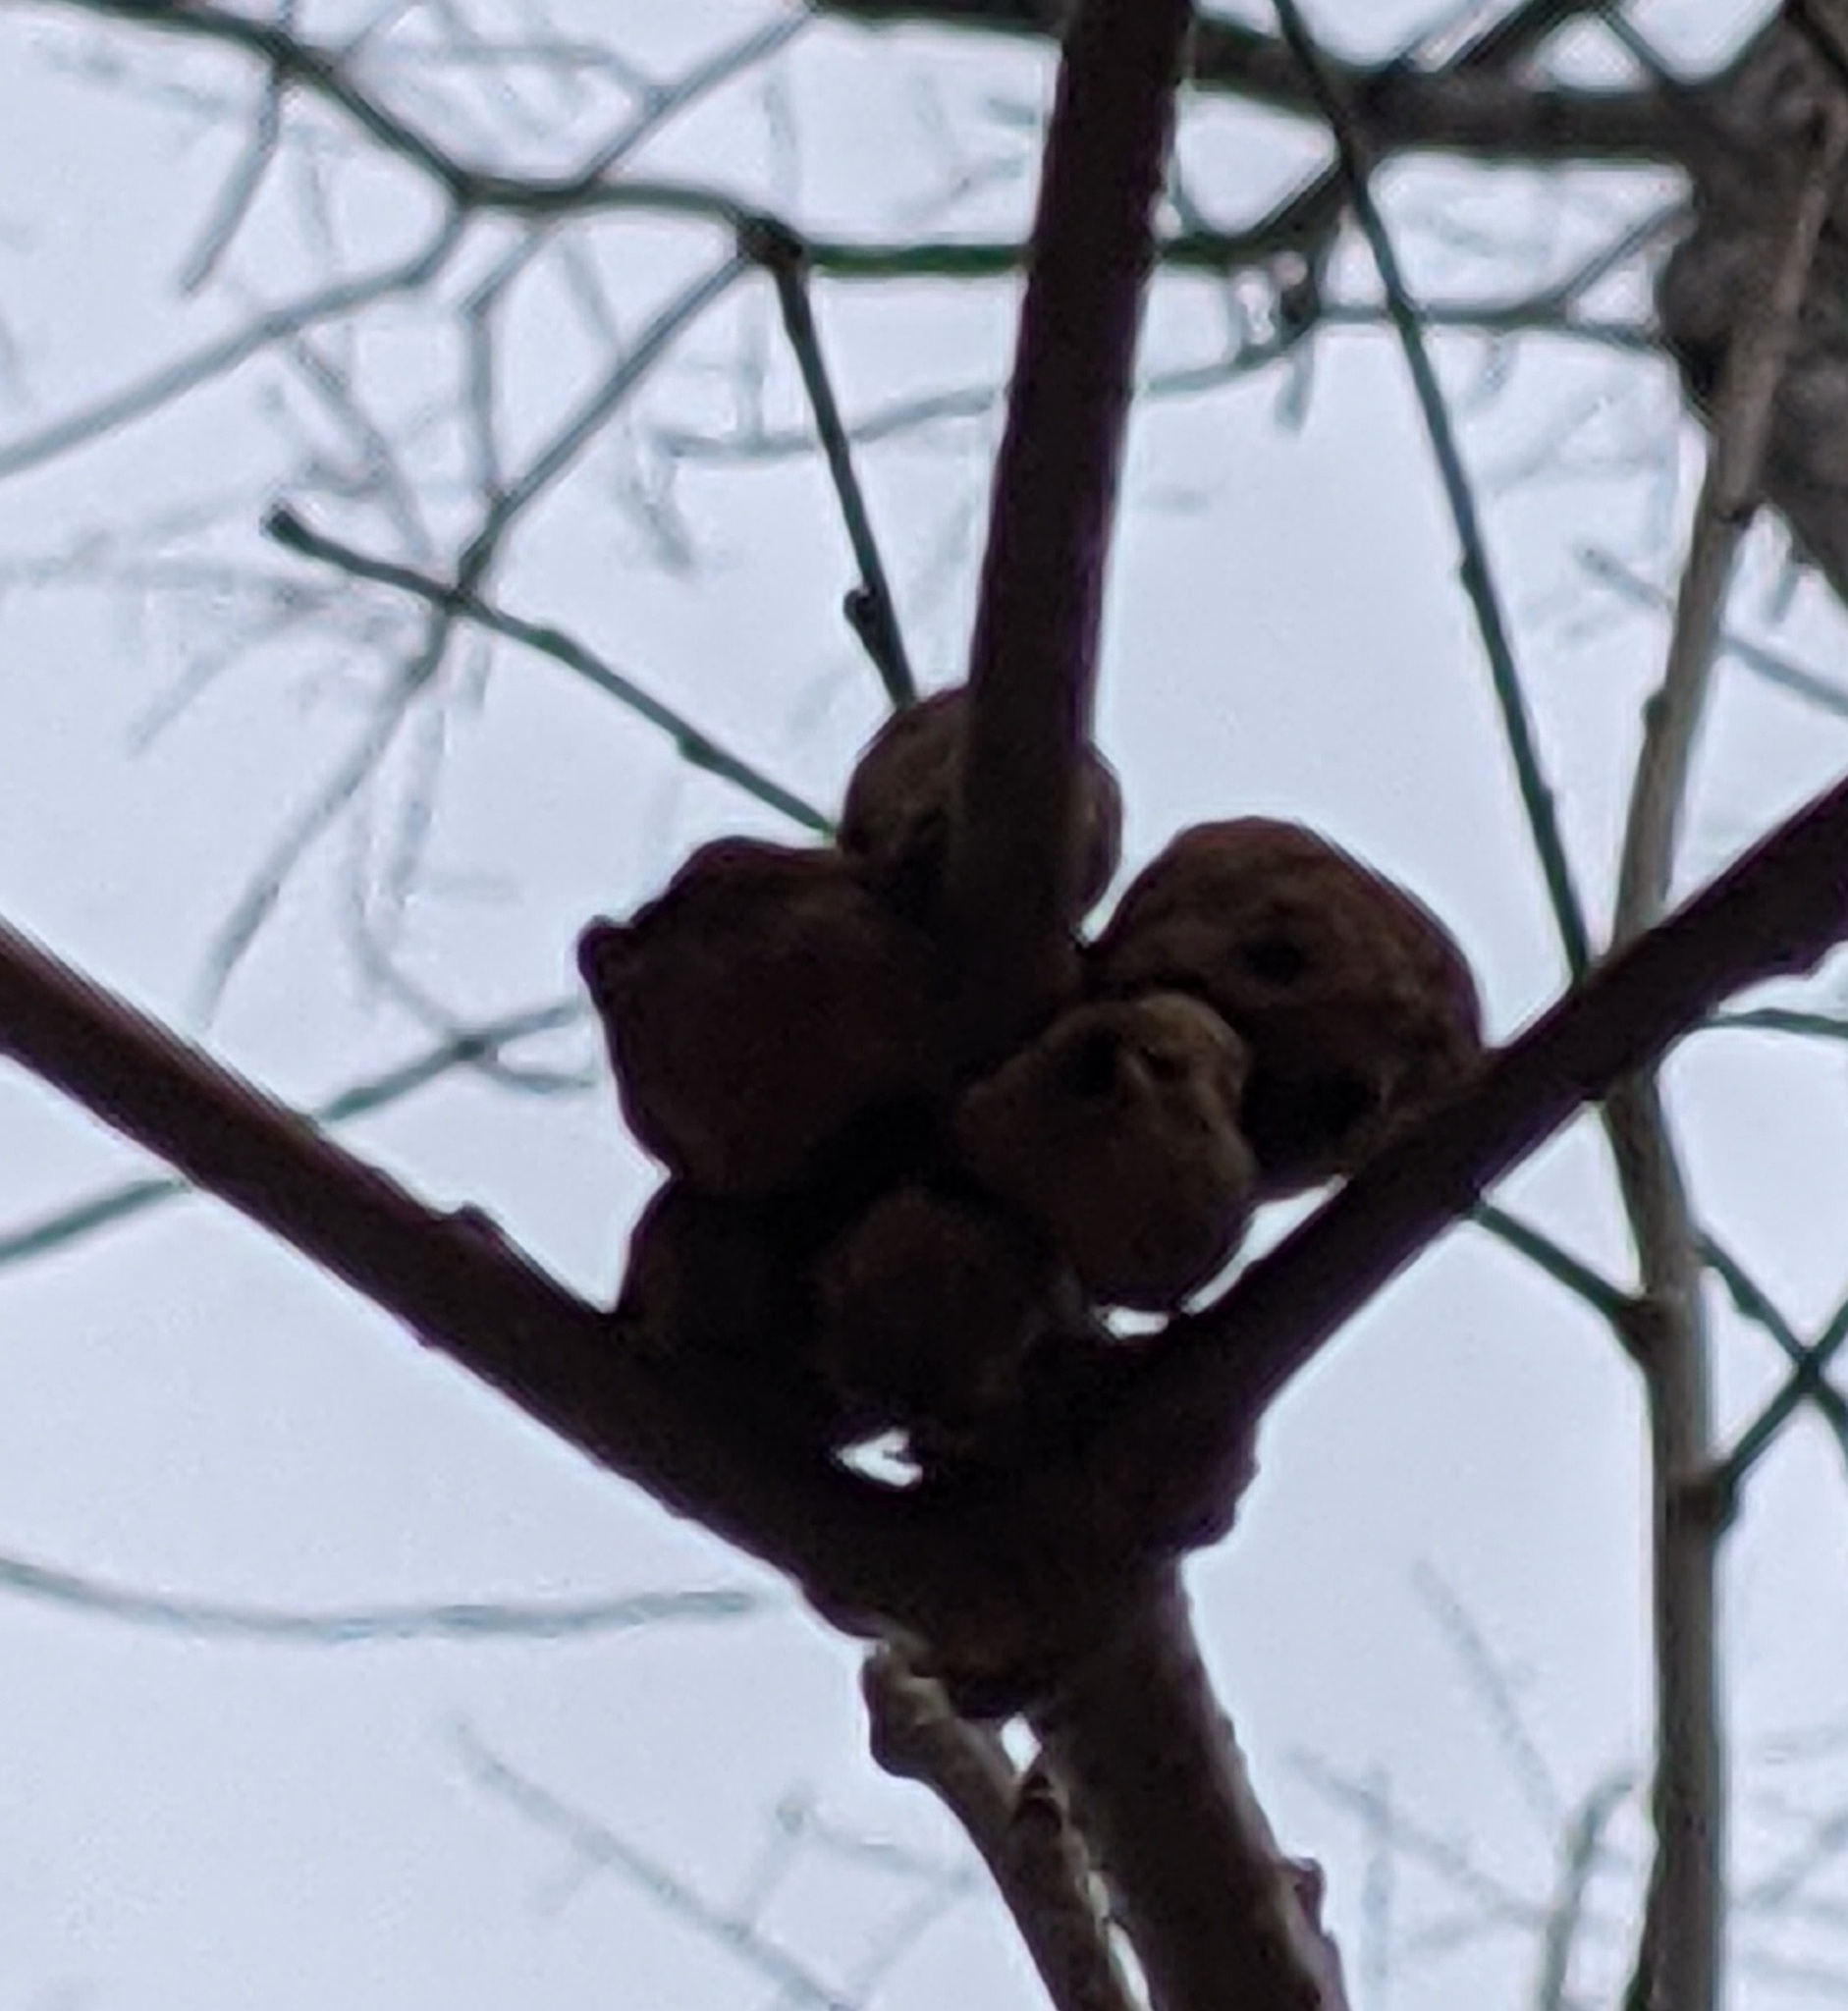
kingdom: Animalia
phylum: Arthropoda
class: Insecta
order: Hymenoptera
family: Cynipidae
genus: Disholcaspis
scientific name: Disholcaspis
